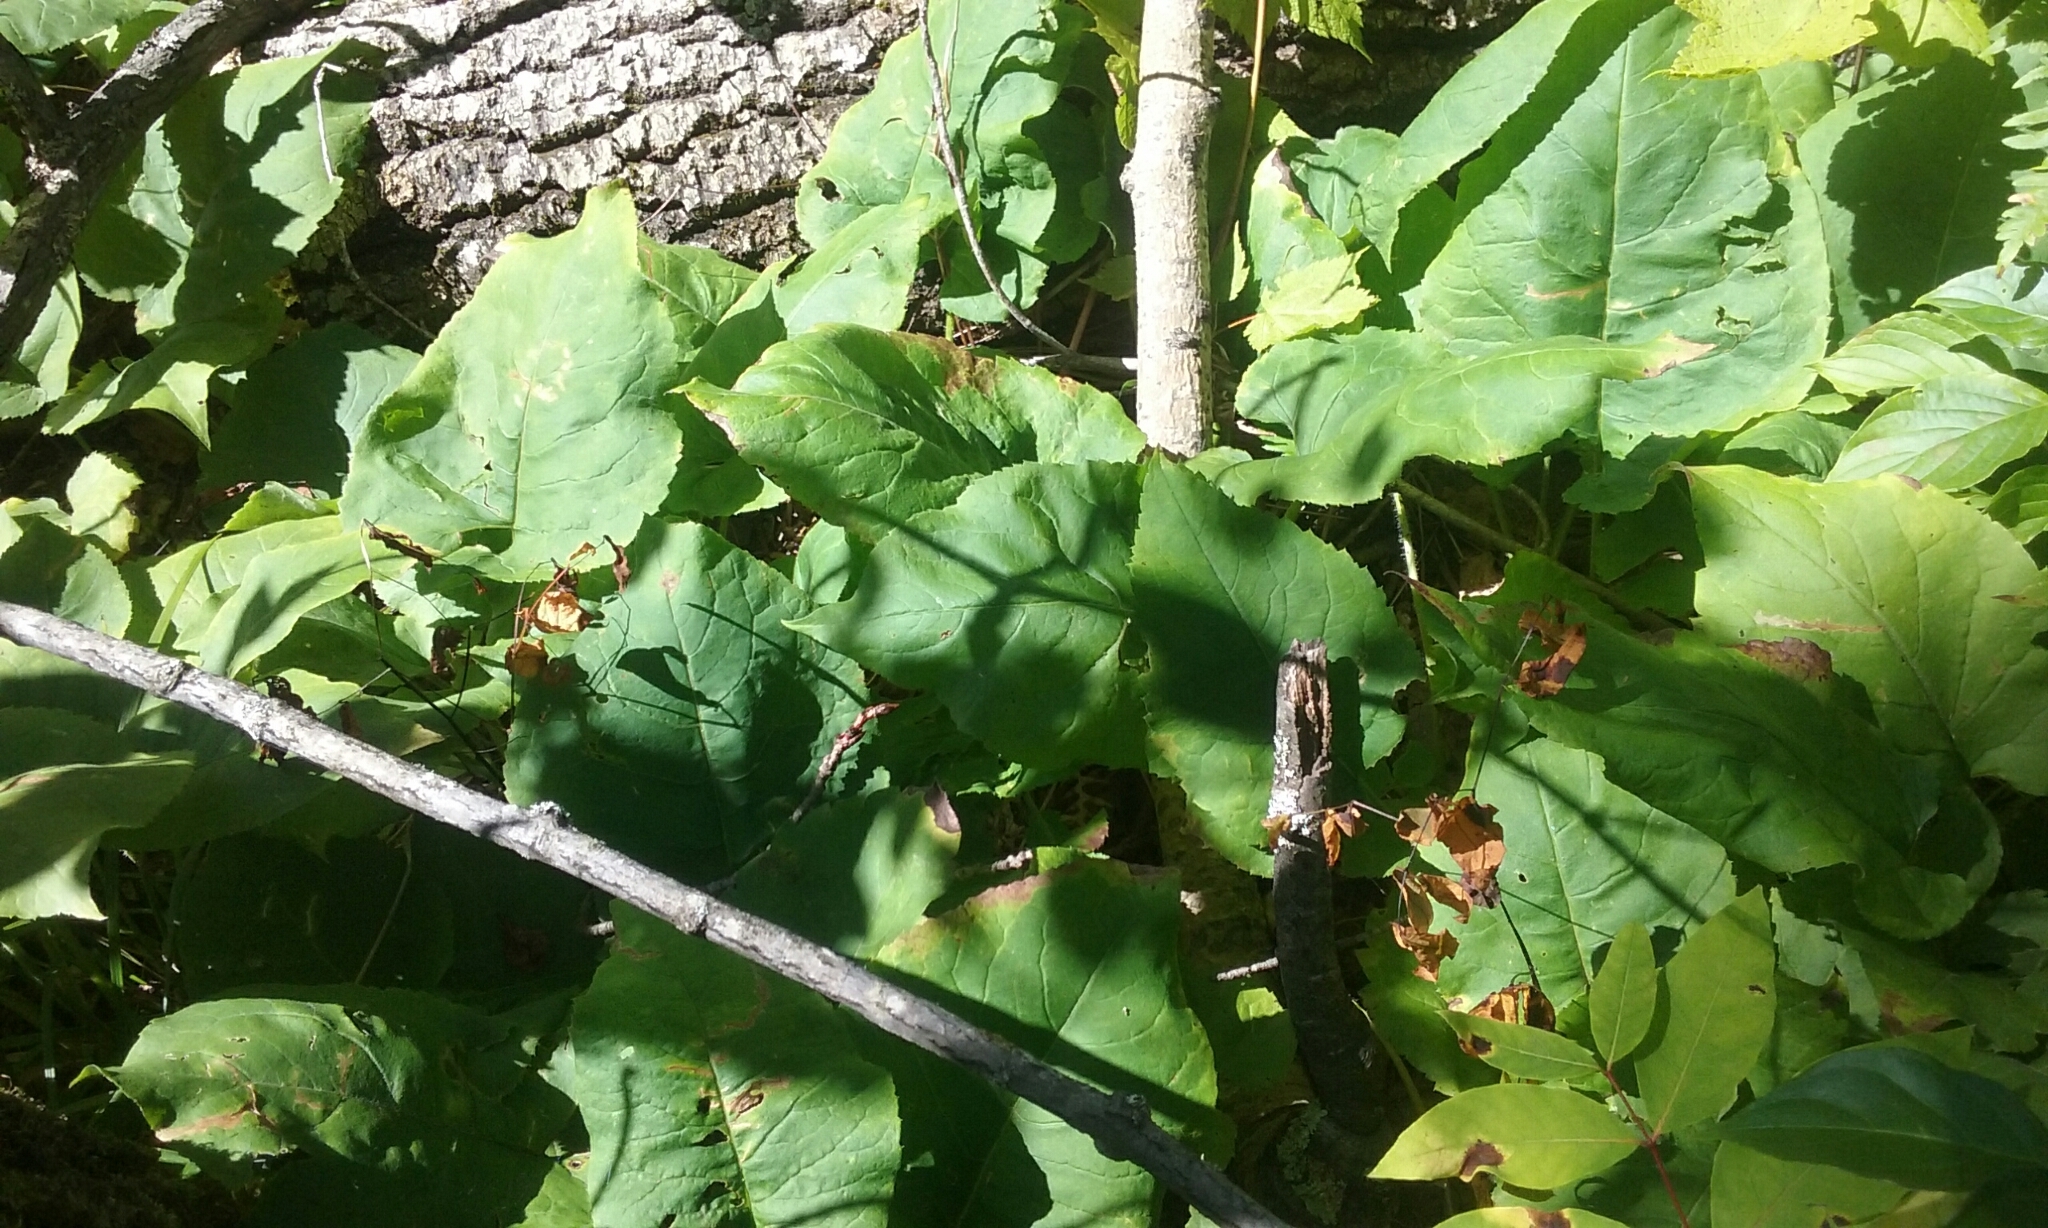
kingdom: Plantae
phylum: Tracheophyta
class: Magnoliopsida
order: Asterales
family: Asteraceae
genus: Eurybia
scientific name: Eurybia macrophylla
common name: Big-leaved aster
